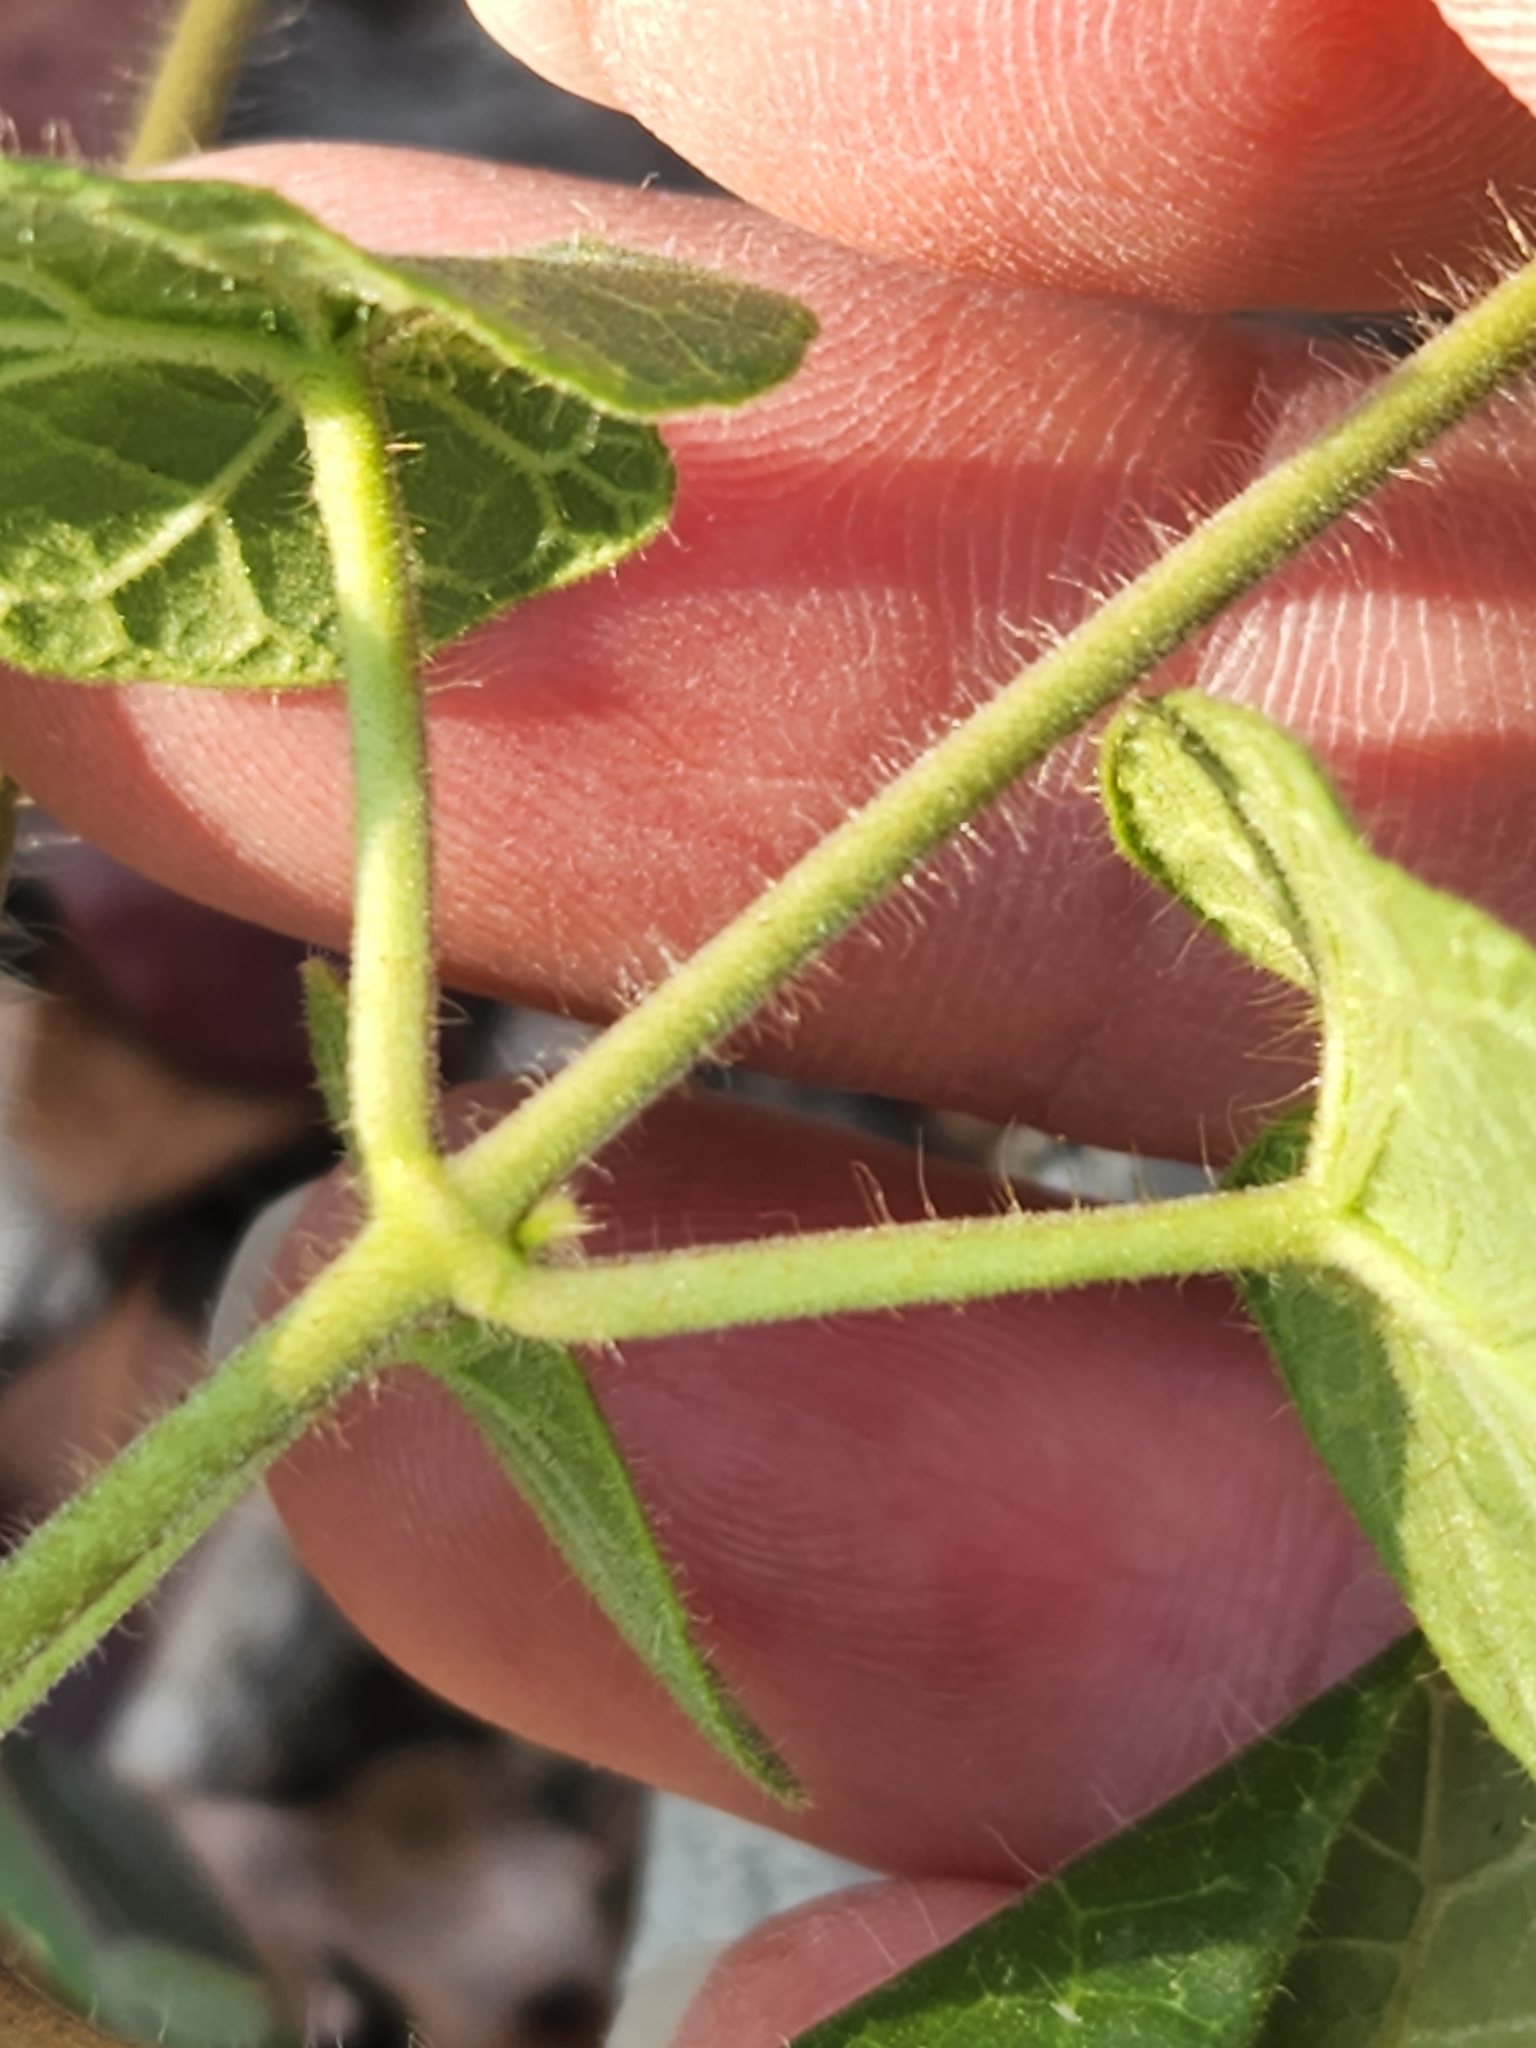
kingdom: Plantae
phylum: Tracheophyta
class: Magnoliopsida
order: Gentianales
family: Apocynaceae
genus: Dictyanthus
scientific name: Dictyanthus reticulatus
